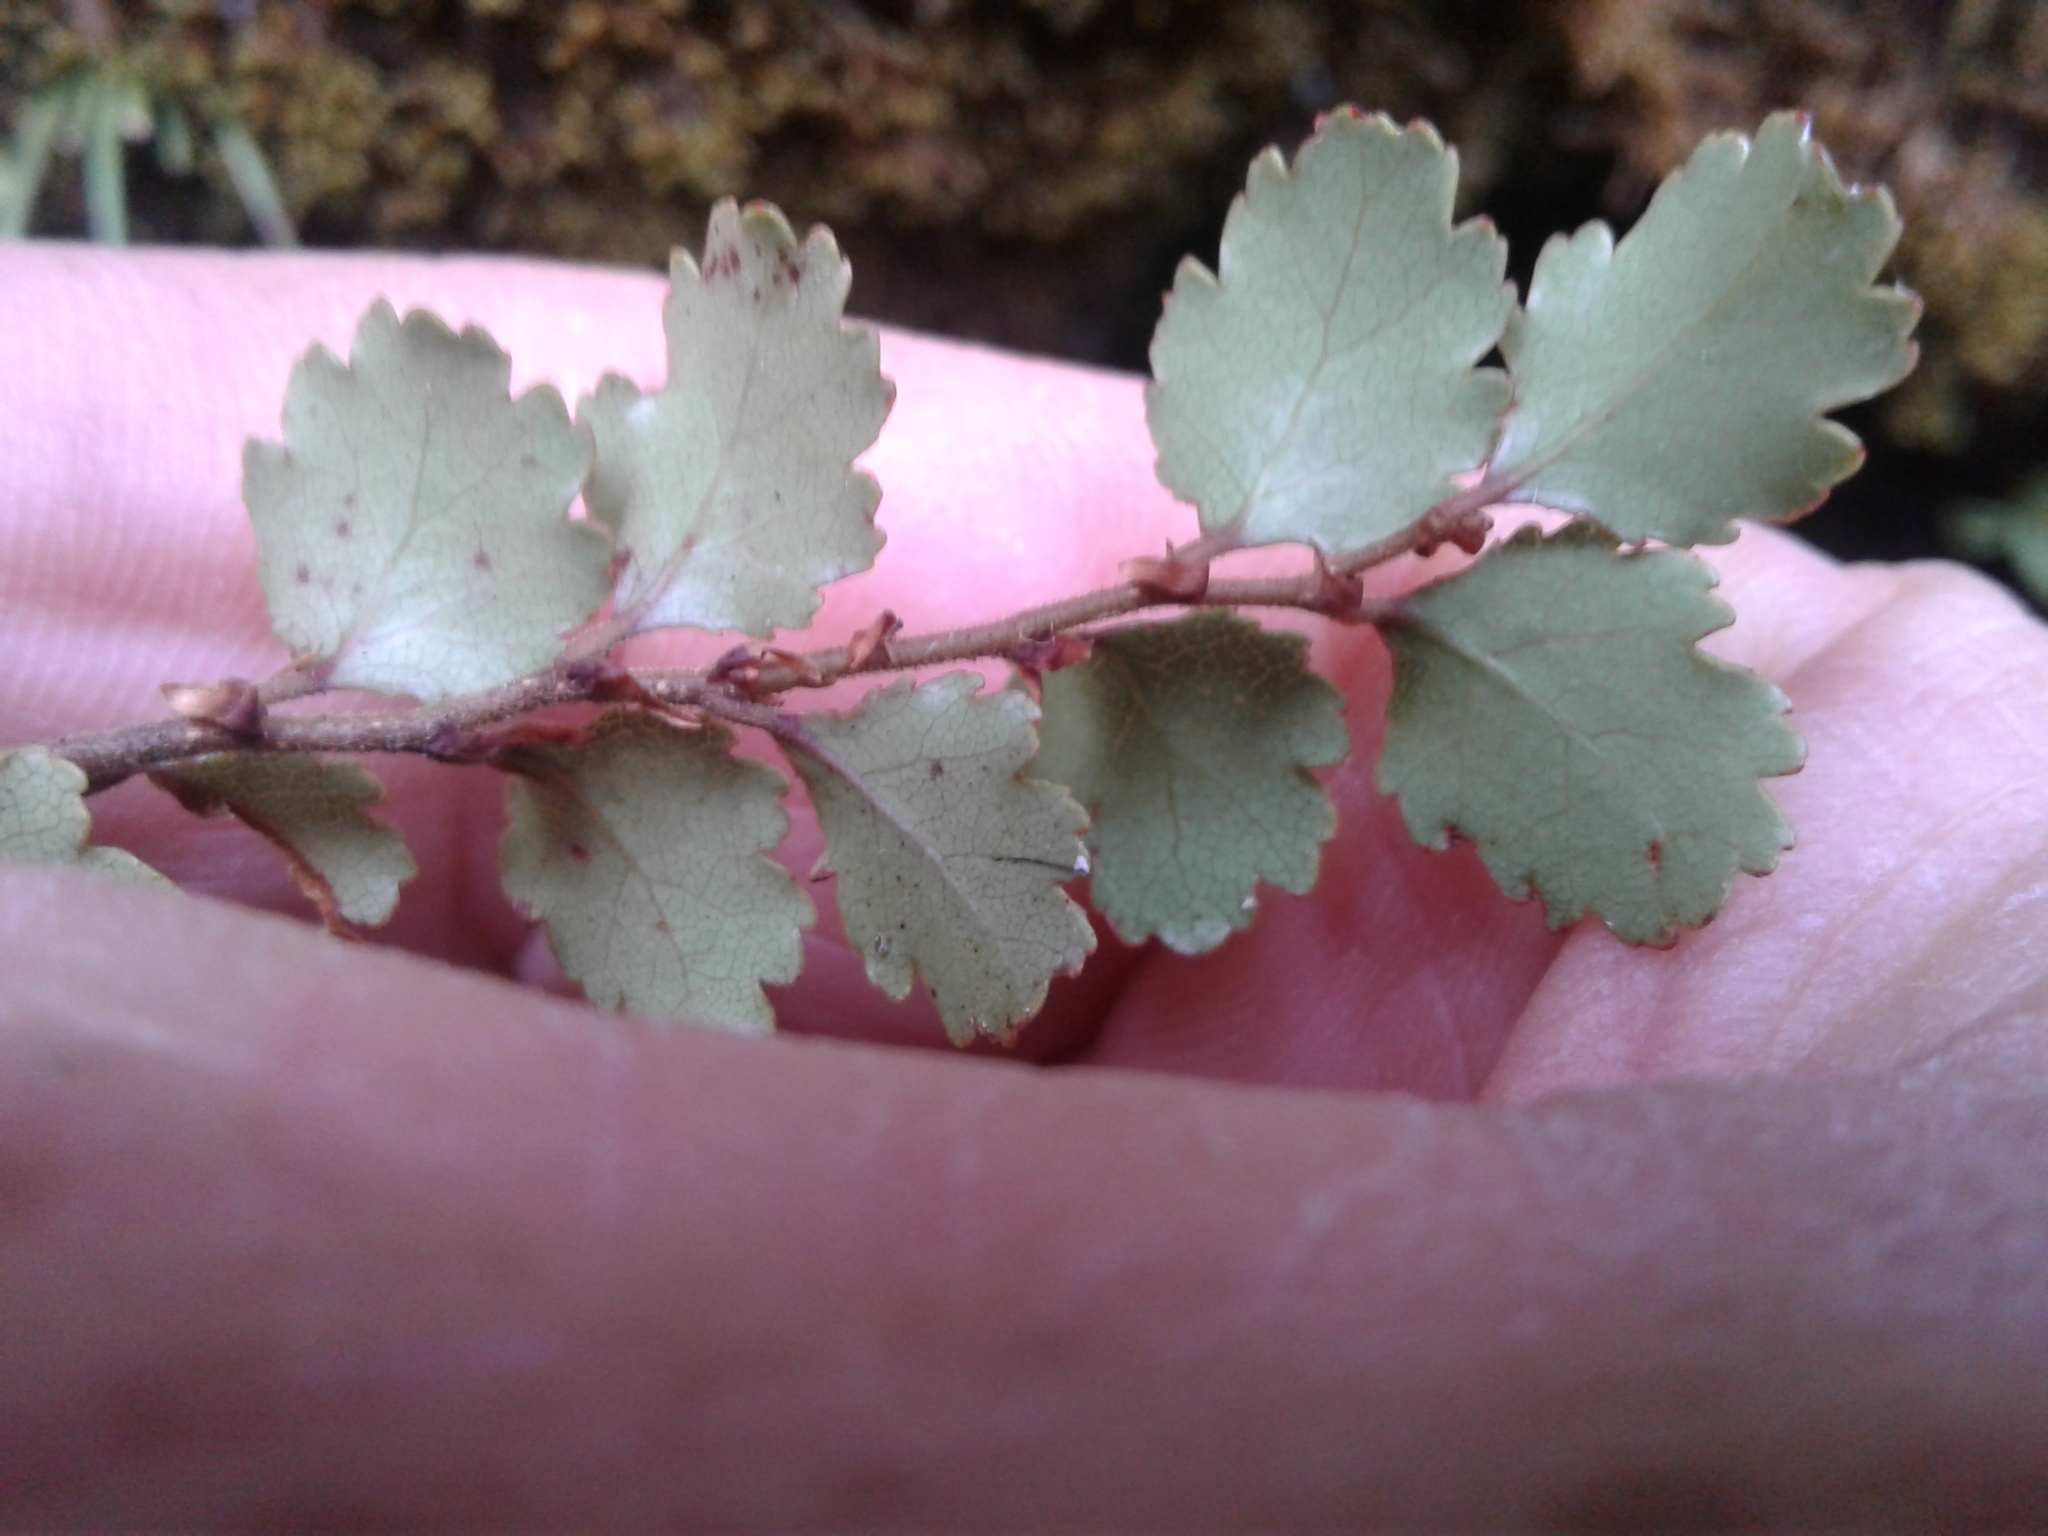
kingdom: Plantae
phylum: Tracheophyta
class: Magnoliopsida
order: Fagales
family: Nothofagaceae
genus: Nothofagus
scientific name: Nothofagus menziesii
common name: Silver beech
